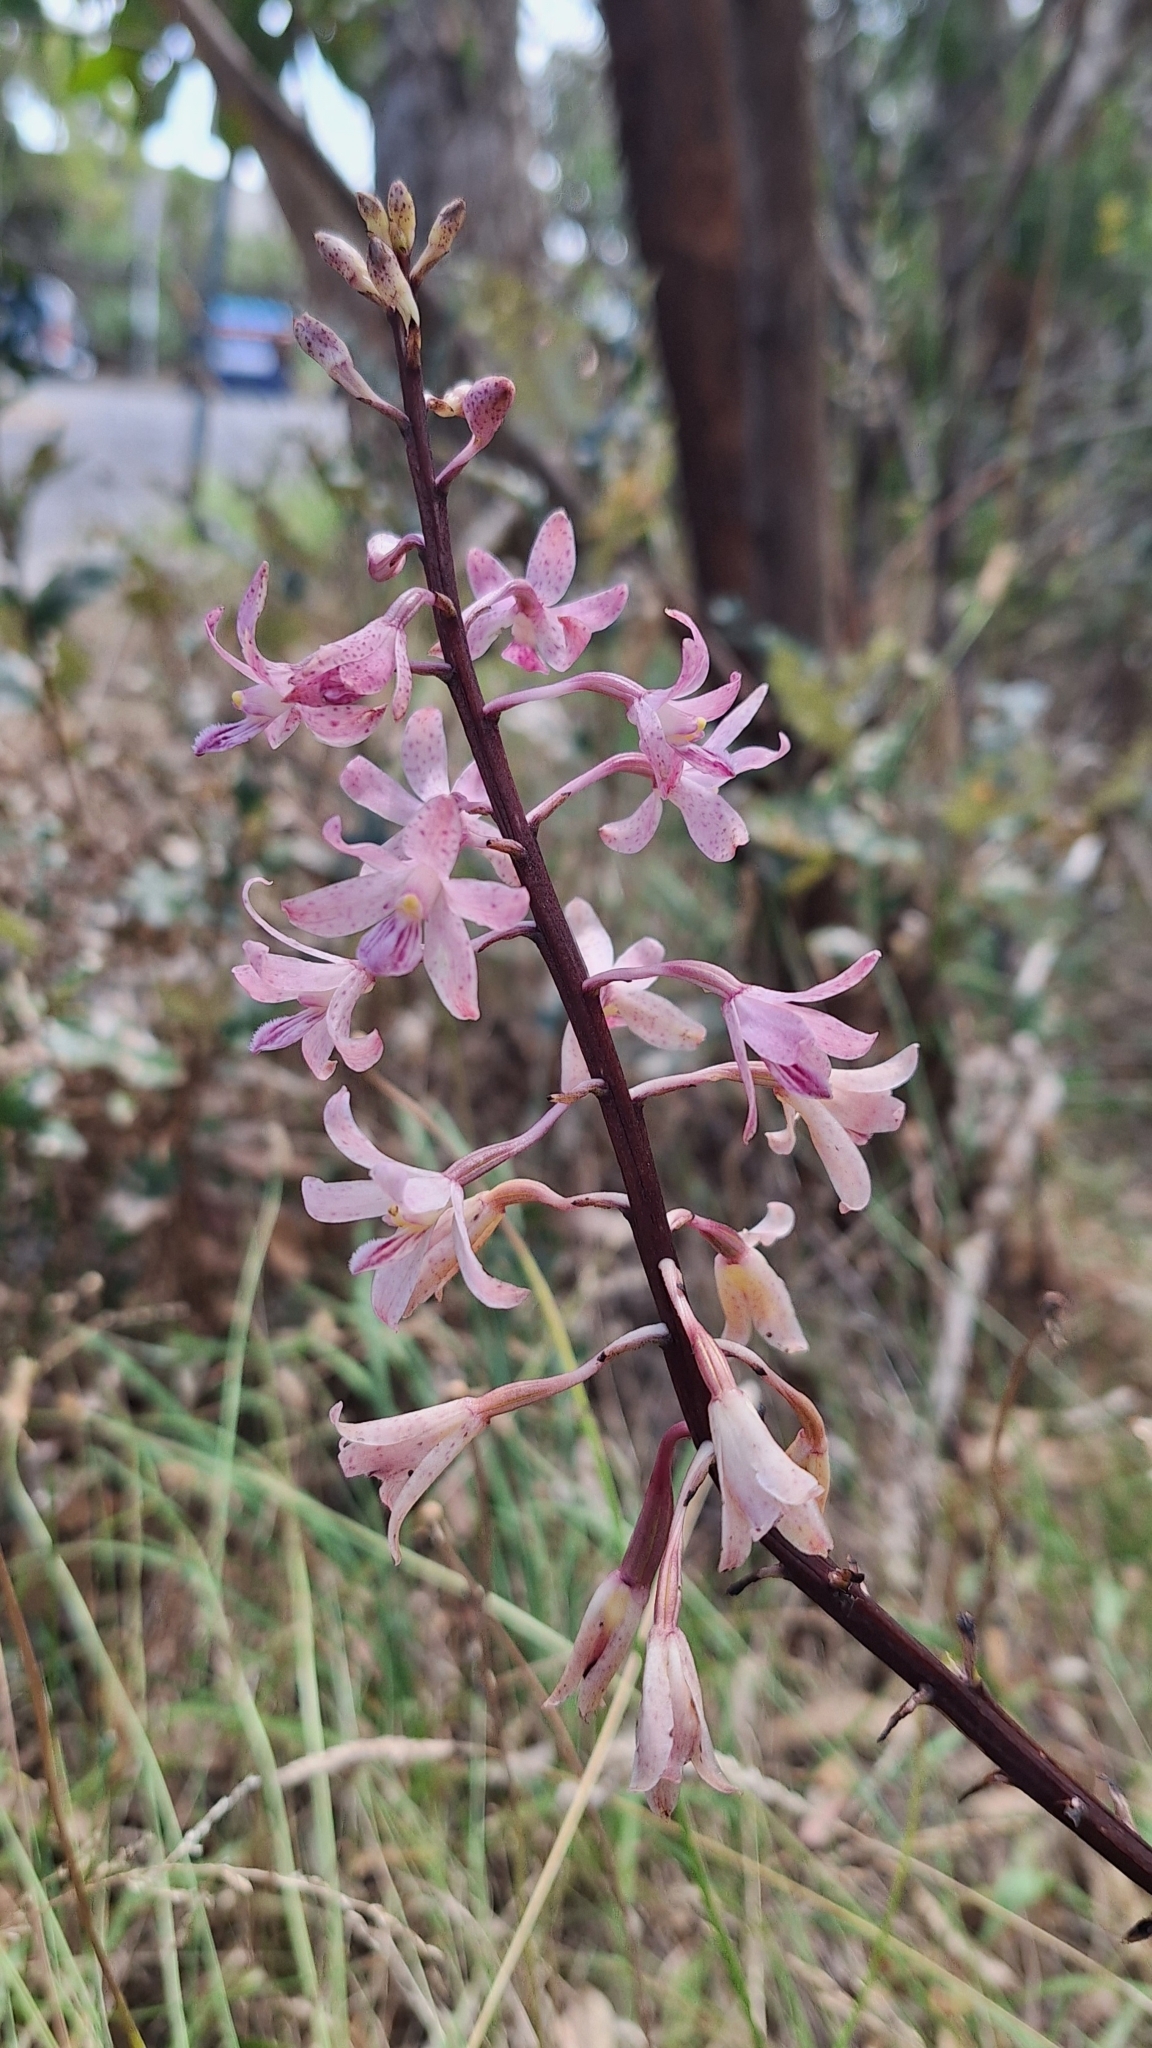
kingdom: Plantae
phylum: Tracheophyta
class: Liliopsida
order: Asparagales
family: Orchidaceae
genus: Dipodium
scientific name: Dipodium roseum
